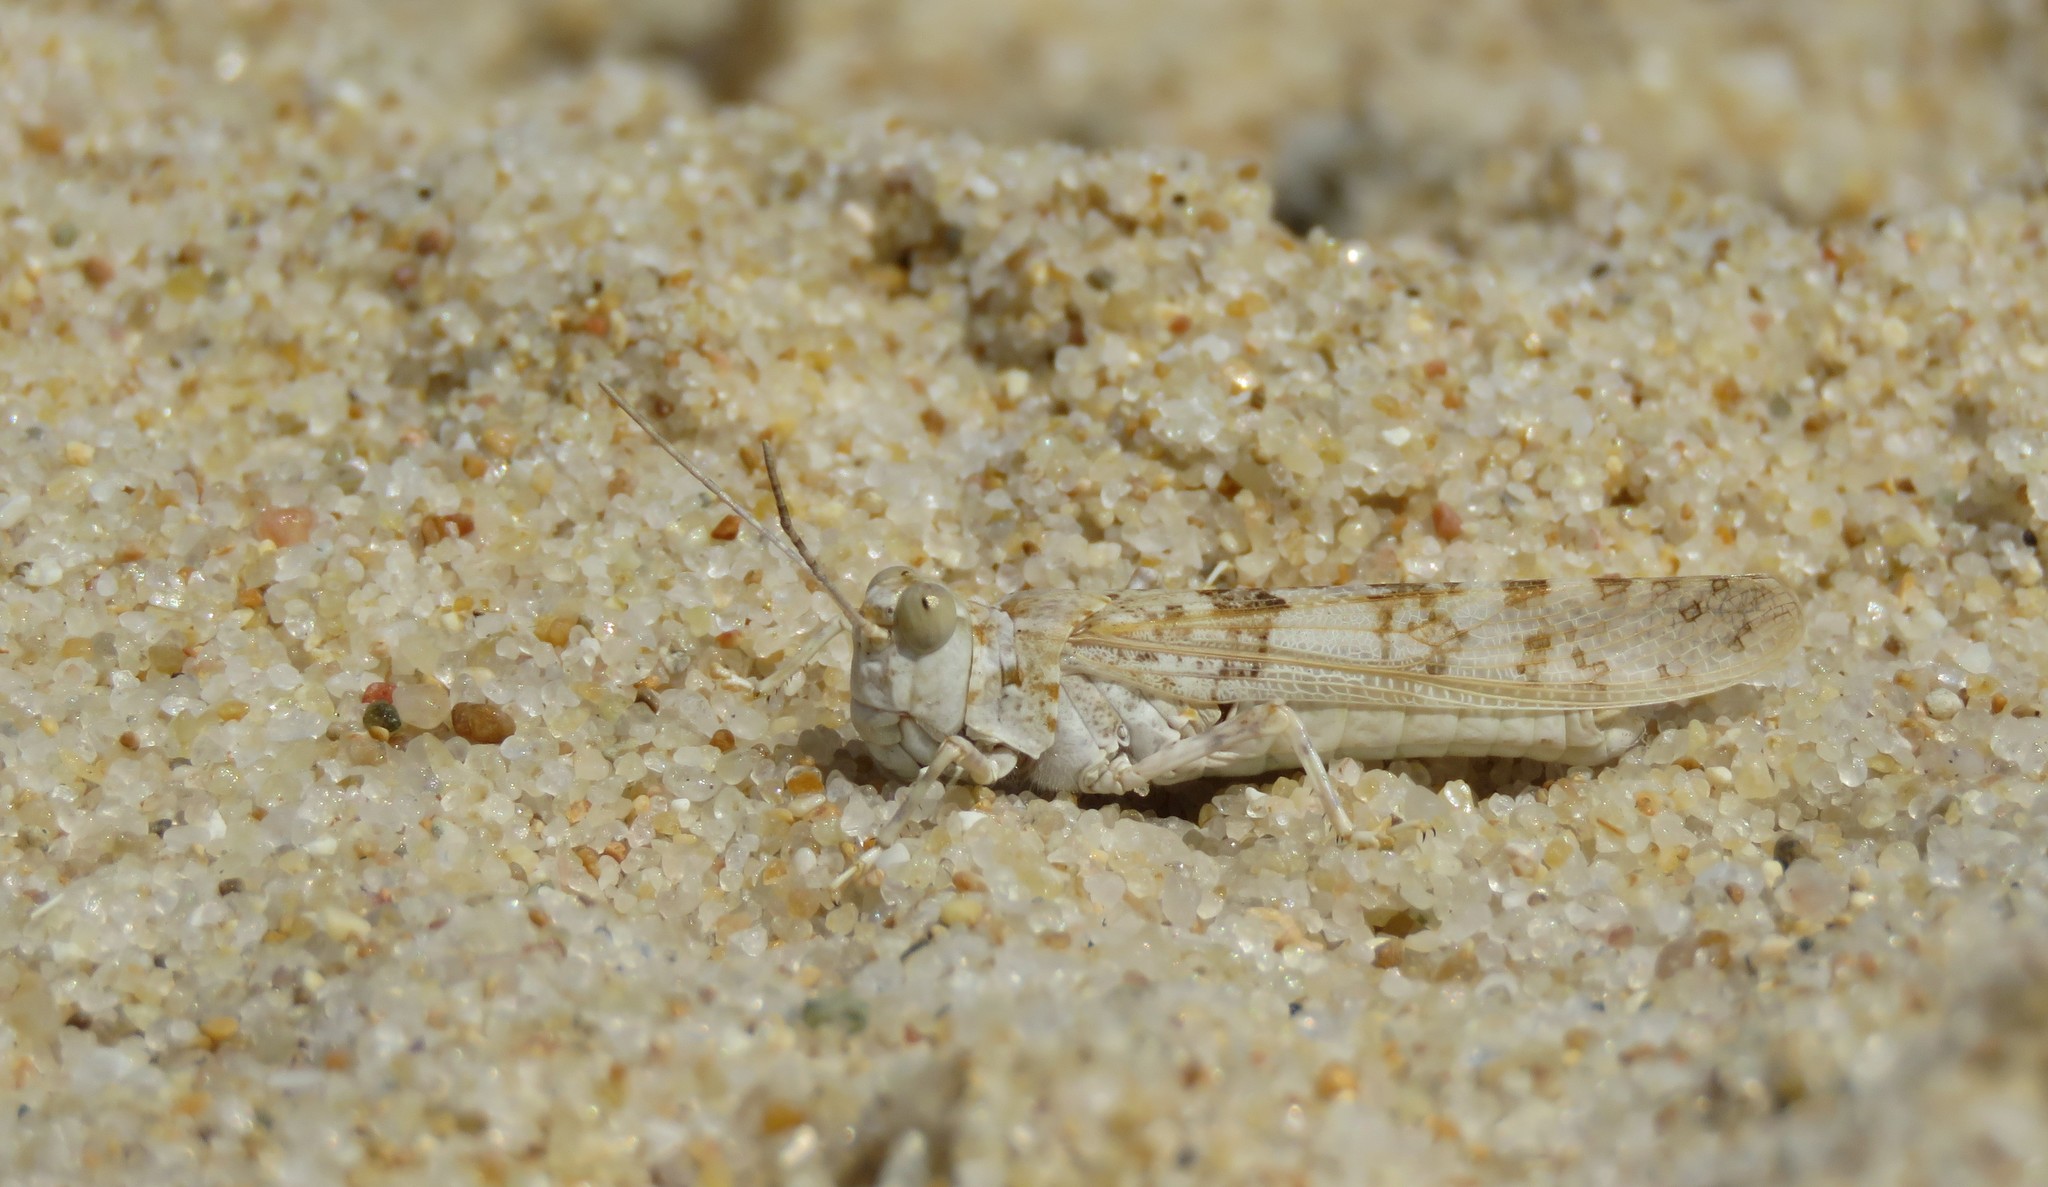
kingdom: Animalia
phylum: Arthropoda
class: Insecta
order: Orthoptera
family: Acrididae
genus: Sphingonotus
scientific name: Sphingonotus imitans
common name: Algarve sand grasshopper
